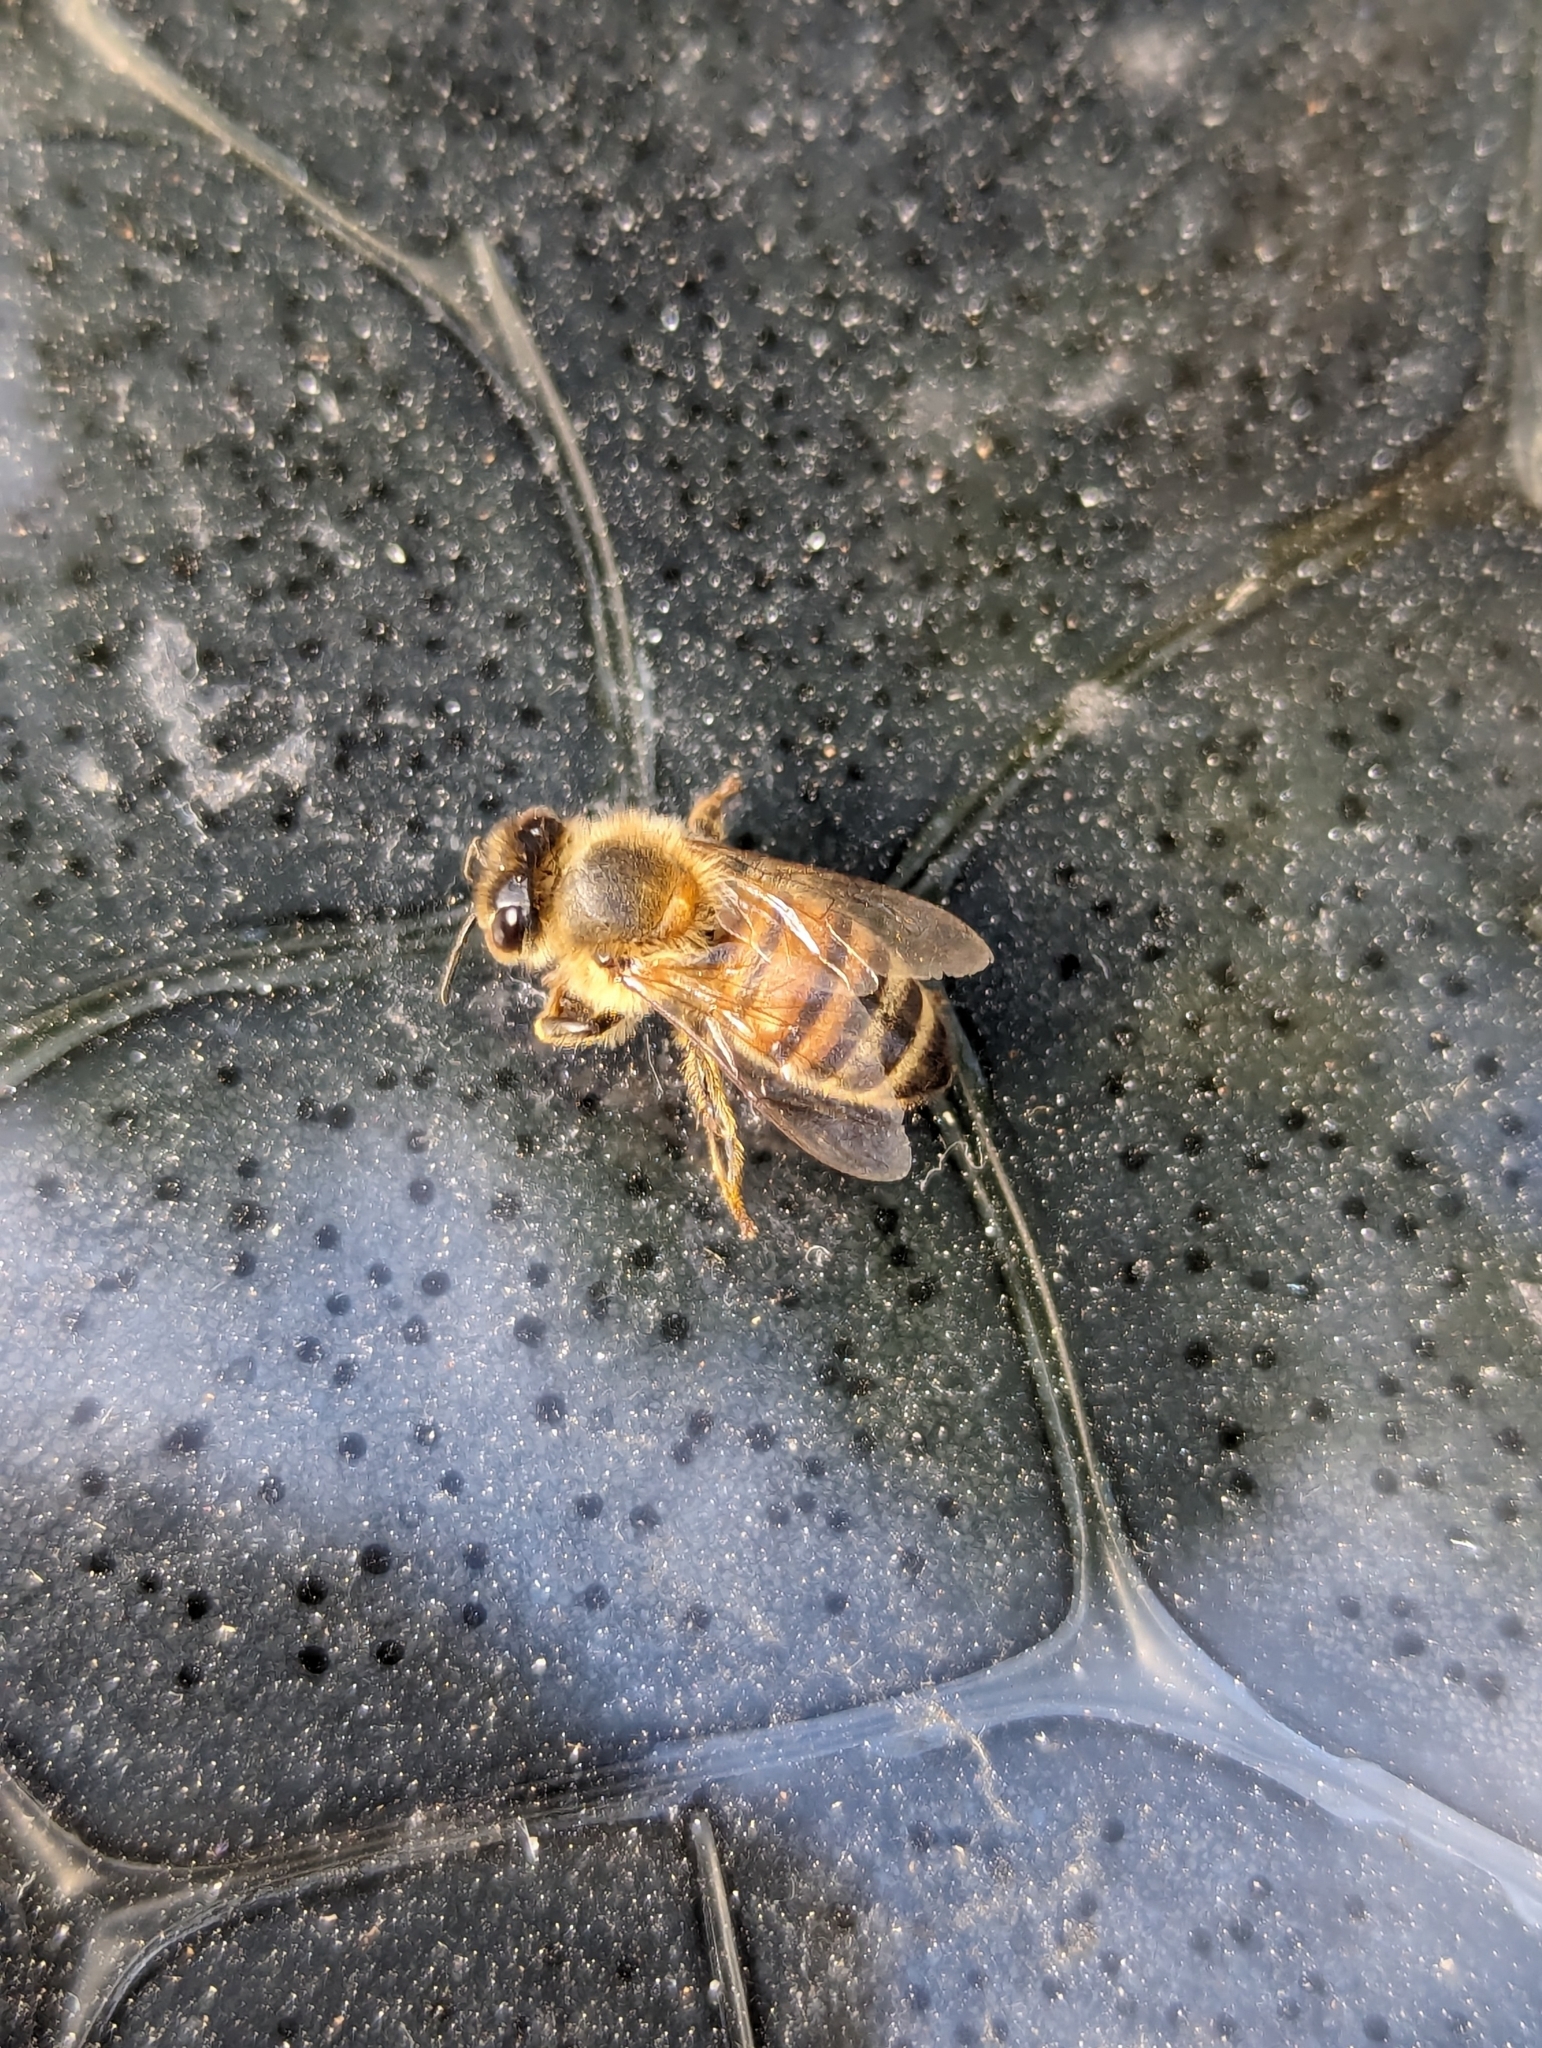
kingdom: Animalia
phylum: Arthropoda
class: Insecta
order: Hymenoptera
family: Apidae
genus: Apis
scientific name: Apis mellifera
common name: Honey bee
